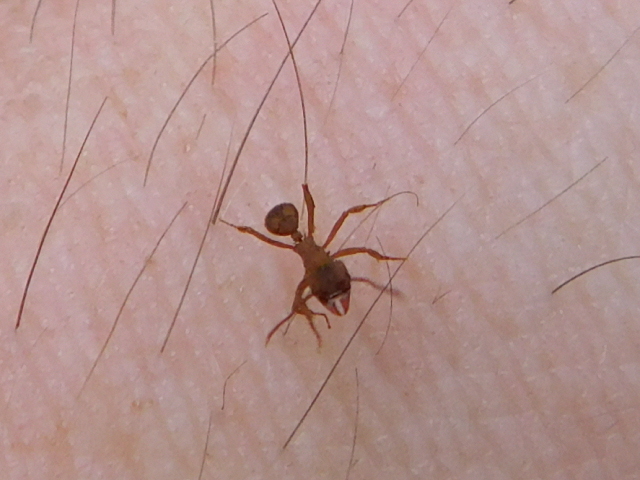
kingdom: Animalia
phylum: Arthropoda
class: Insecta
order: Hymenoptera
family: Formicidae
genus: Trachymyrmex
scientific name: Trachymyrmex septentrionalis
